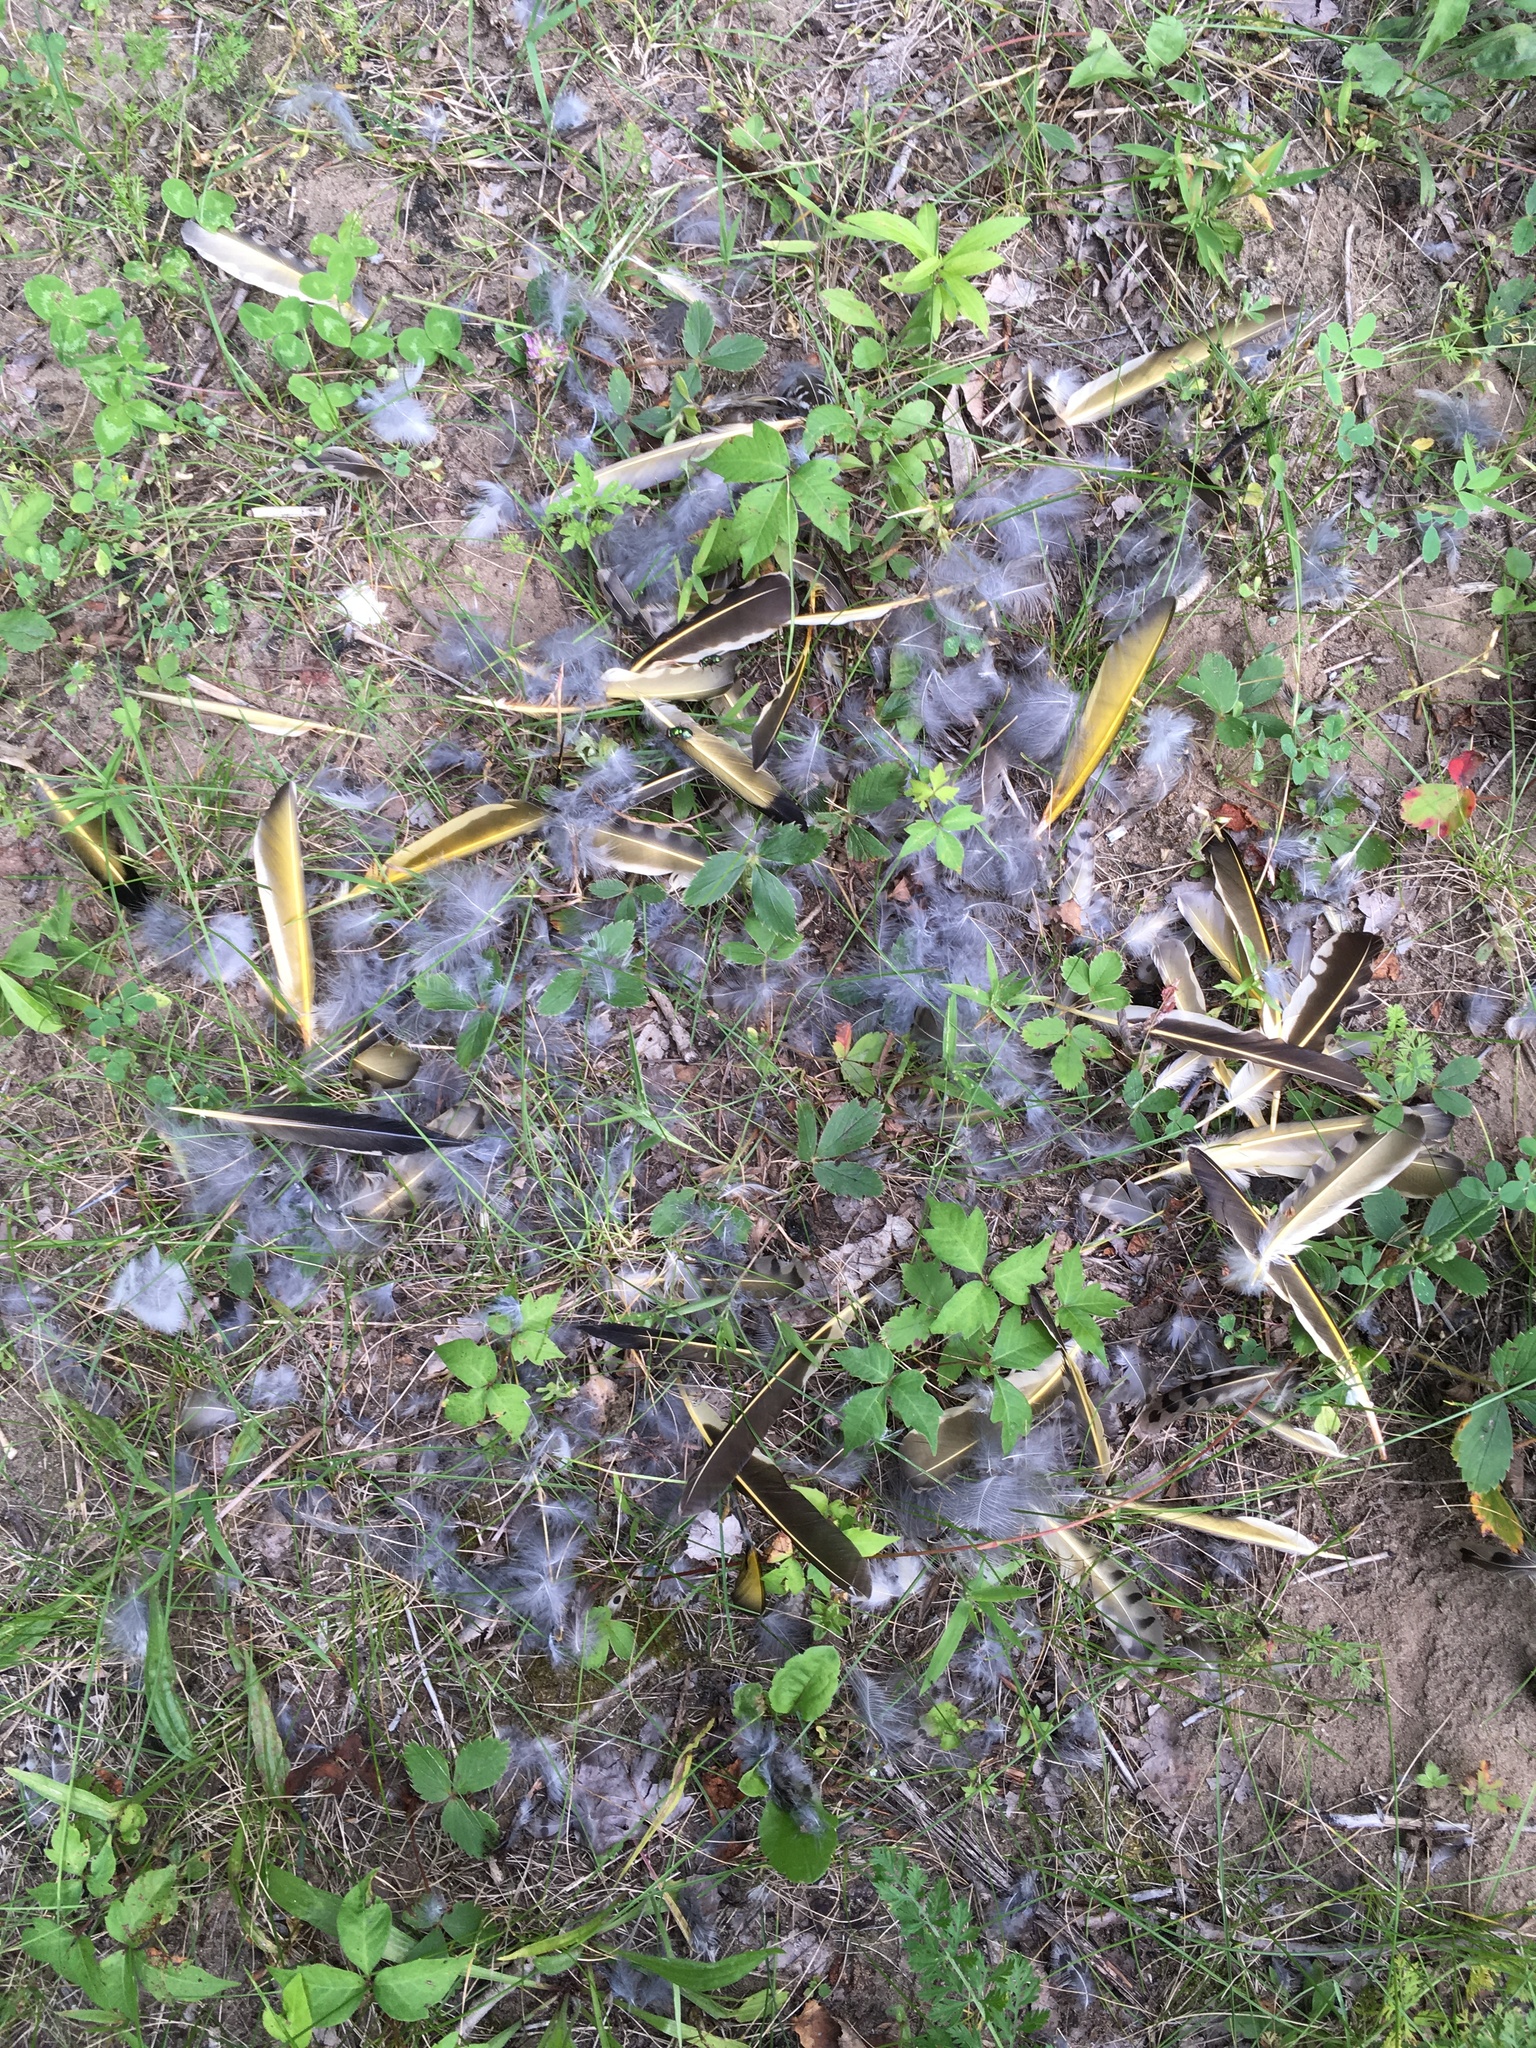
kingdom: Animalia
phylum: Chordata
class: Aves
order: Piciformes
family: Picidae
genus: Colaptes
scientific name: Colaptes auratus
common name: Northern flicker
